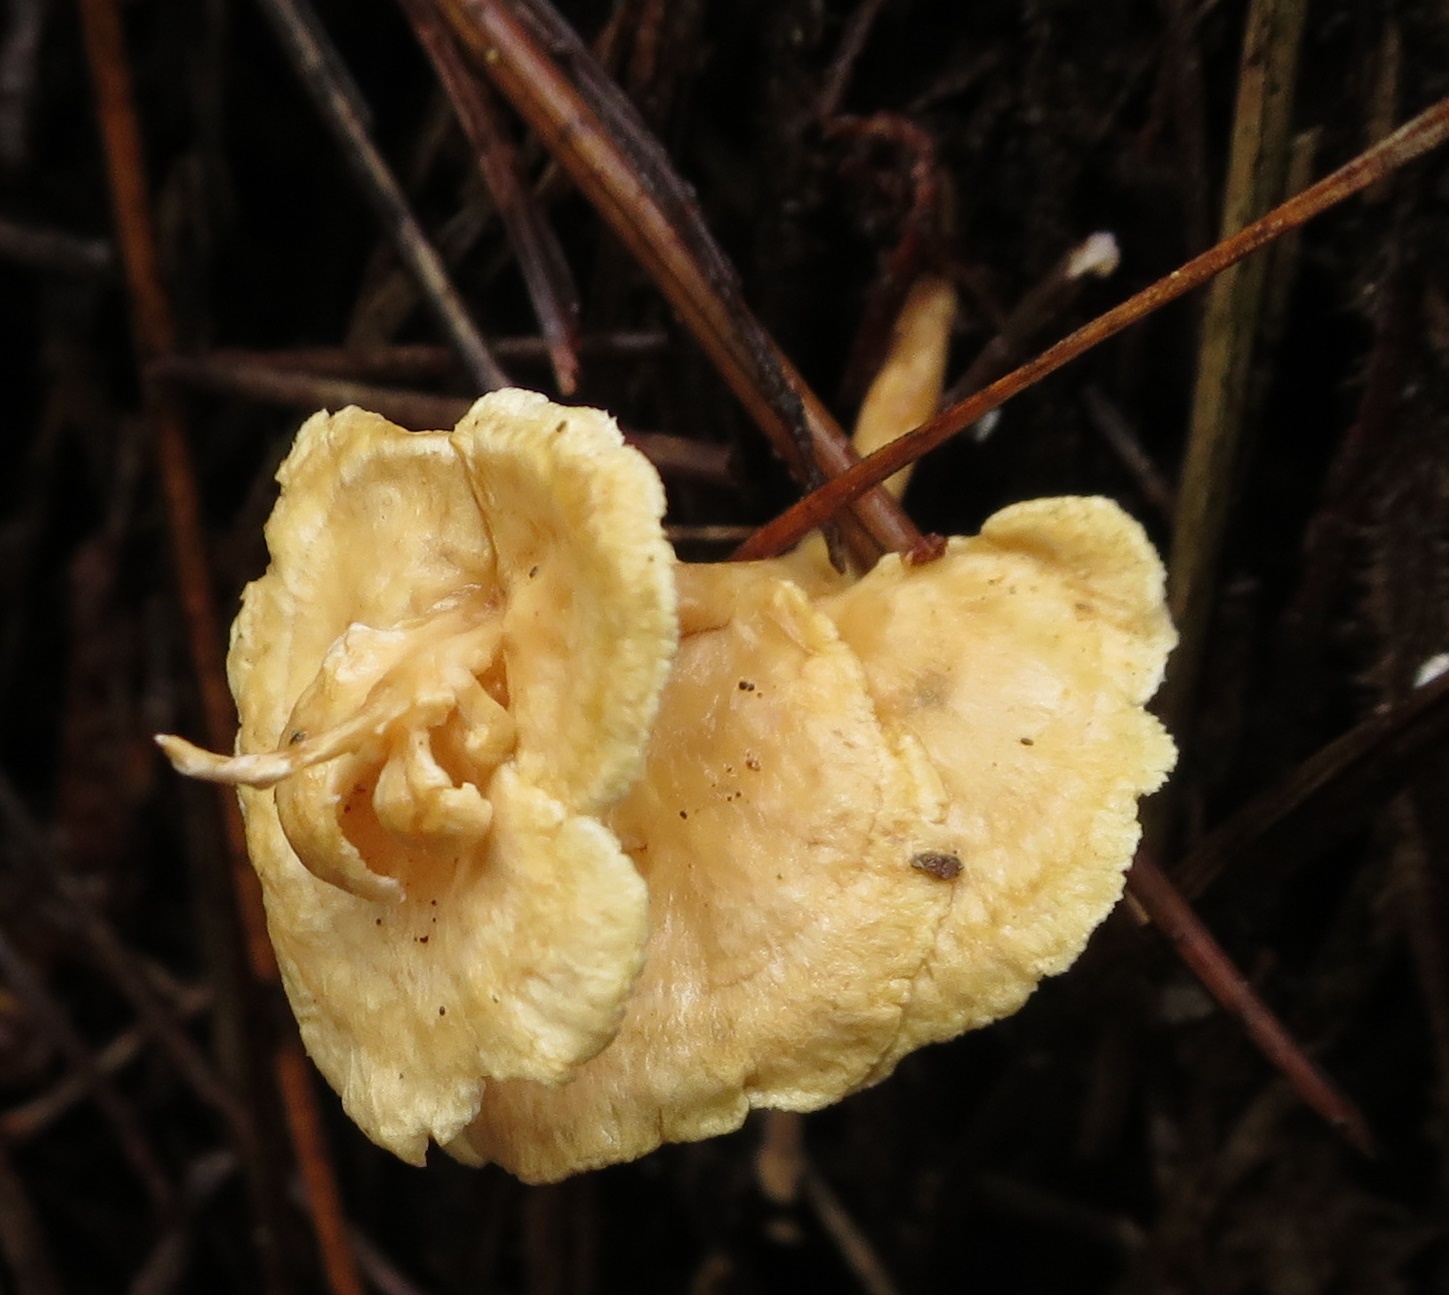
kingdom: Fungi
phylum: Basidiomycota
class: Agaricomycetes
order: Amylocorticiales
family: Amylocorticiaceae
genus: Podoserpula
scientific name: Podoserpula pusio
